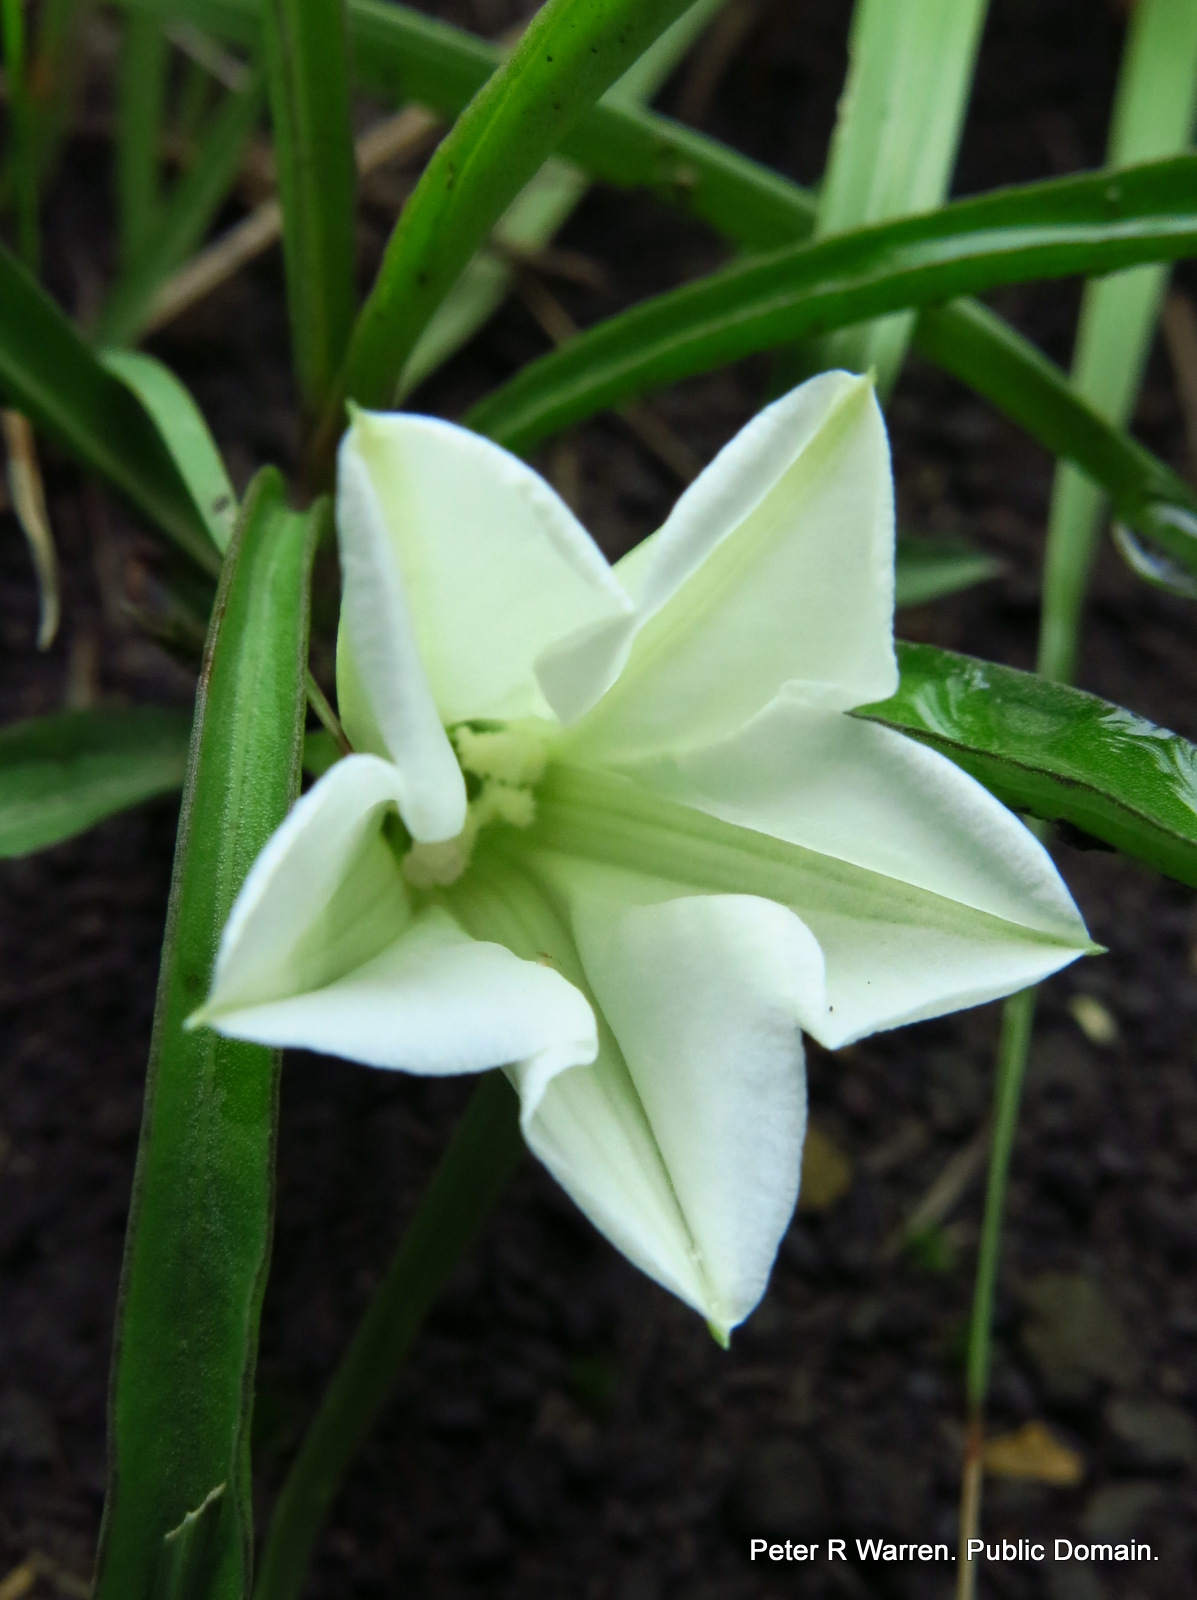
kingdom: Plantae
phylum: Tracheophyta
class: Magnoliopsida
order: Solanales
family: Convolvulaceae
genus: Ipomoea
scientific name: Ipomoea simplex
